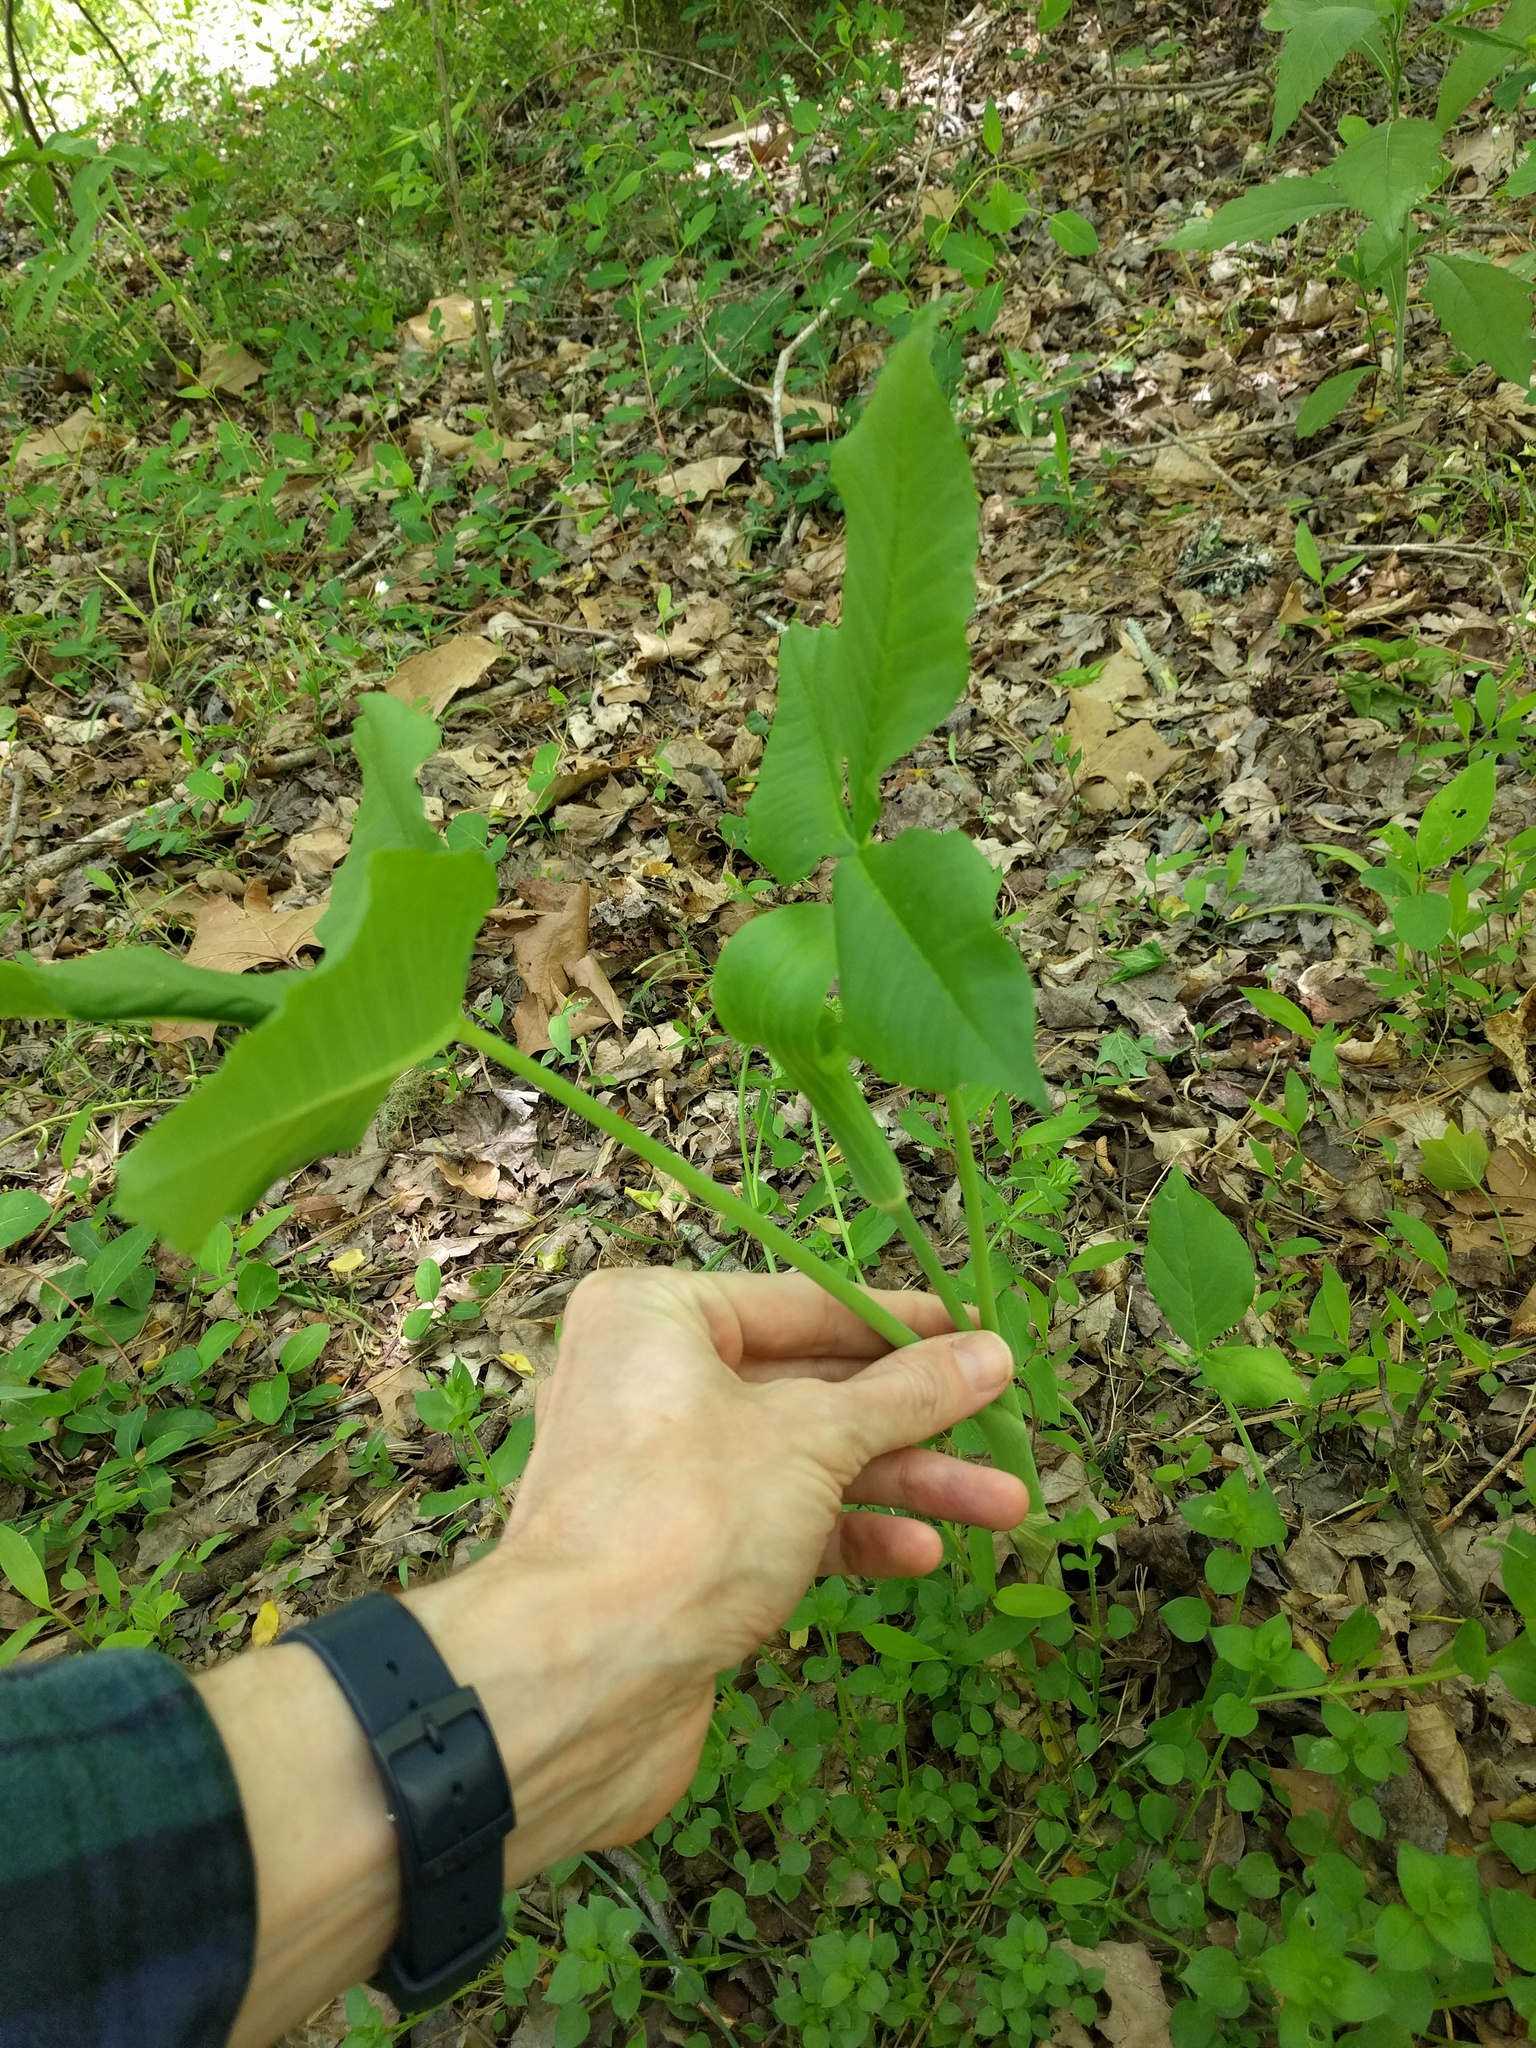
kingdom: Plantae
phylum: Tracheophyta
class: Liliopsida
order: Alismatales
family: Araceae
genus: Arisaema
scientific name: Arisaema triphyllum
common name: Jack-in-the-pulpit
